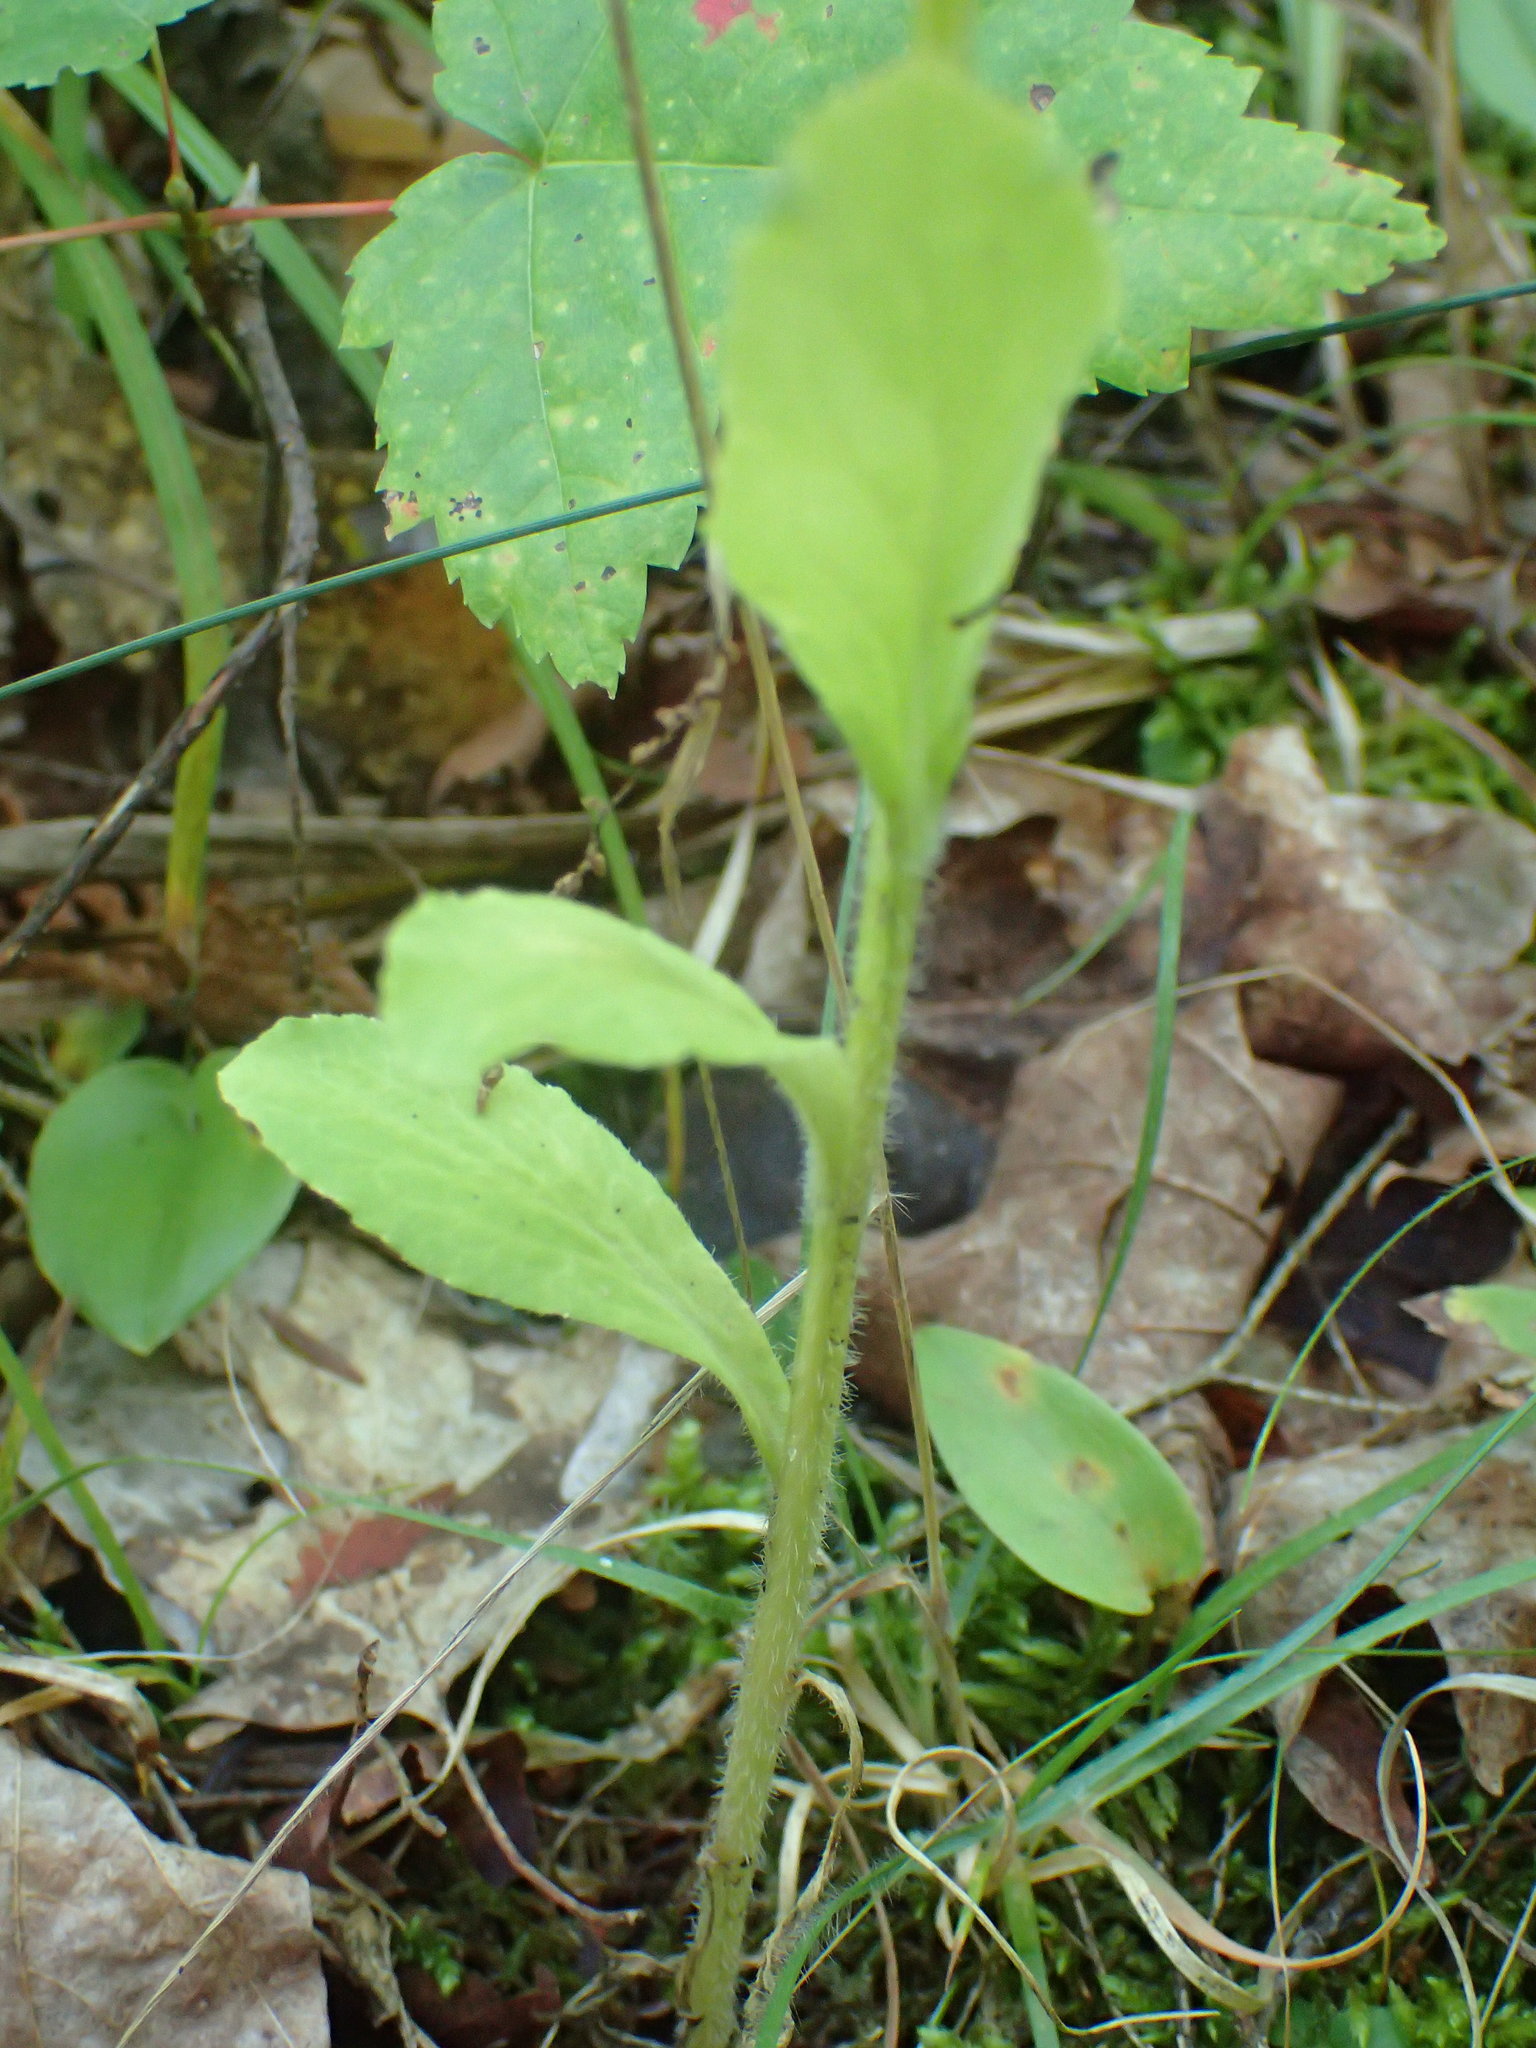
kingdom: Plantae
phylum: Tracheophyta
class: Magnoliopsida
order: Asterales
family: Campanulaceae
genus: Lobelia
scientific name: Lobelia inflata
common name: Indian tobacco
